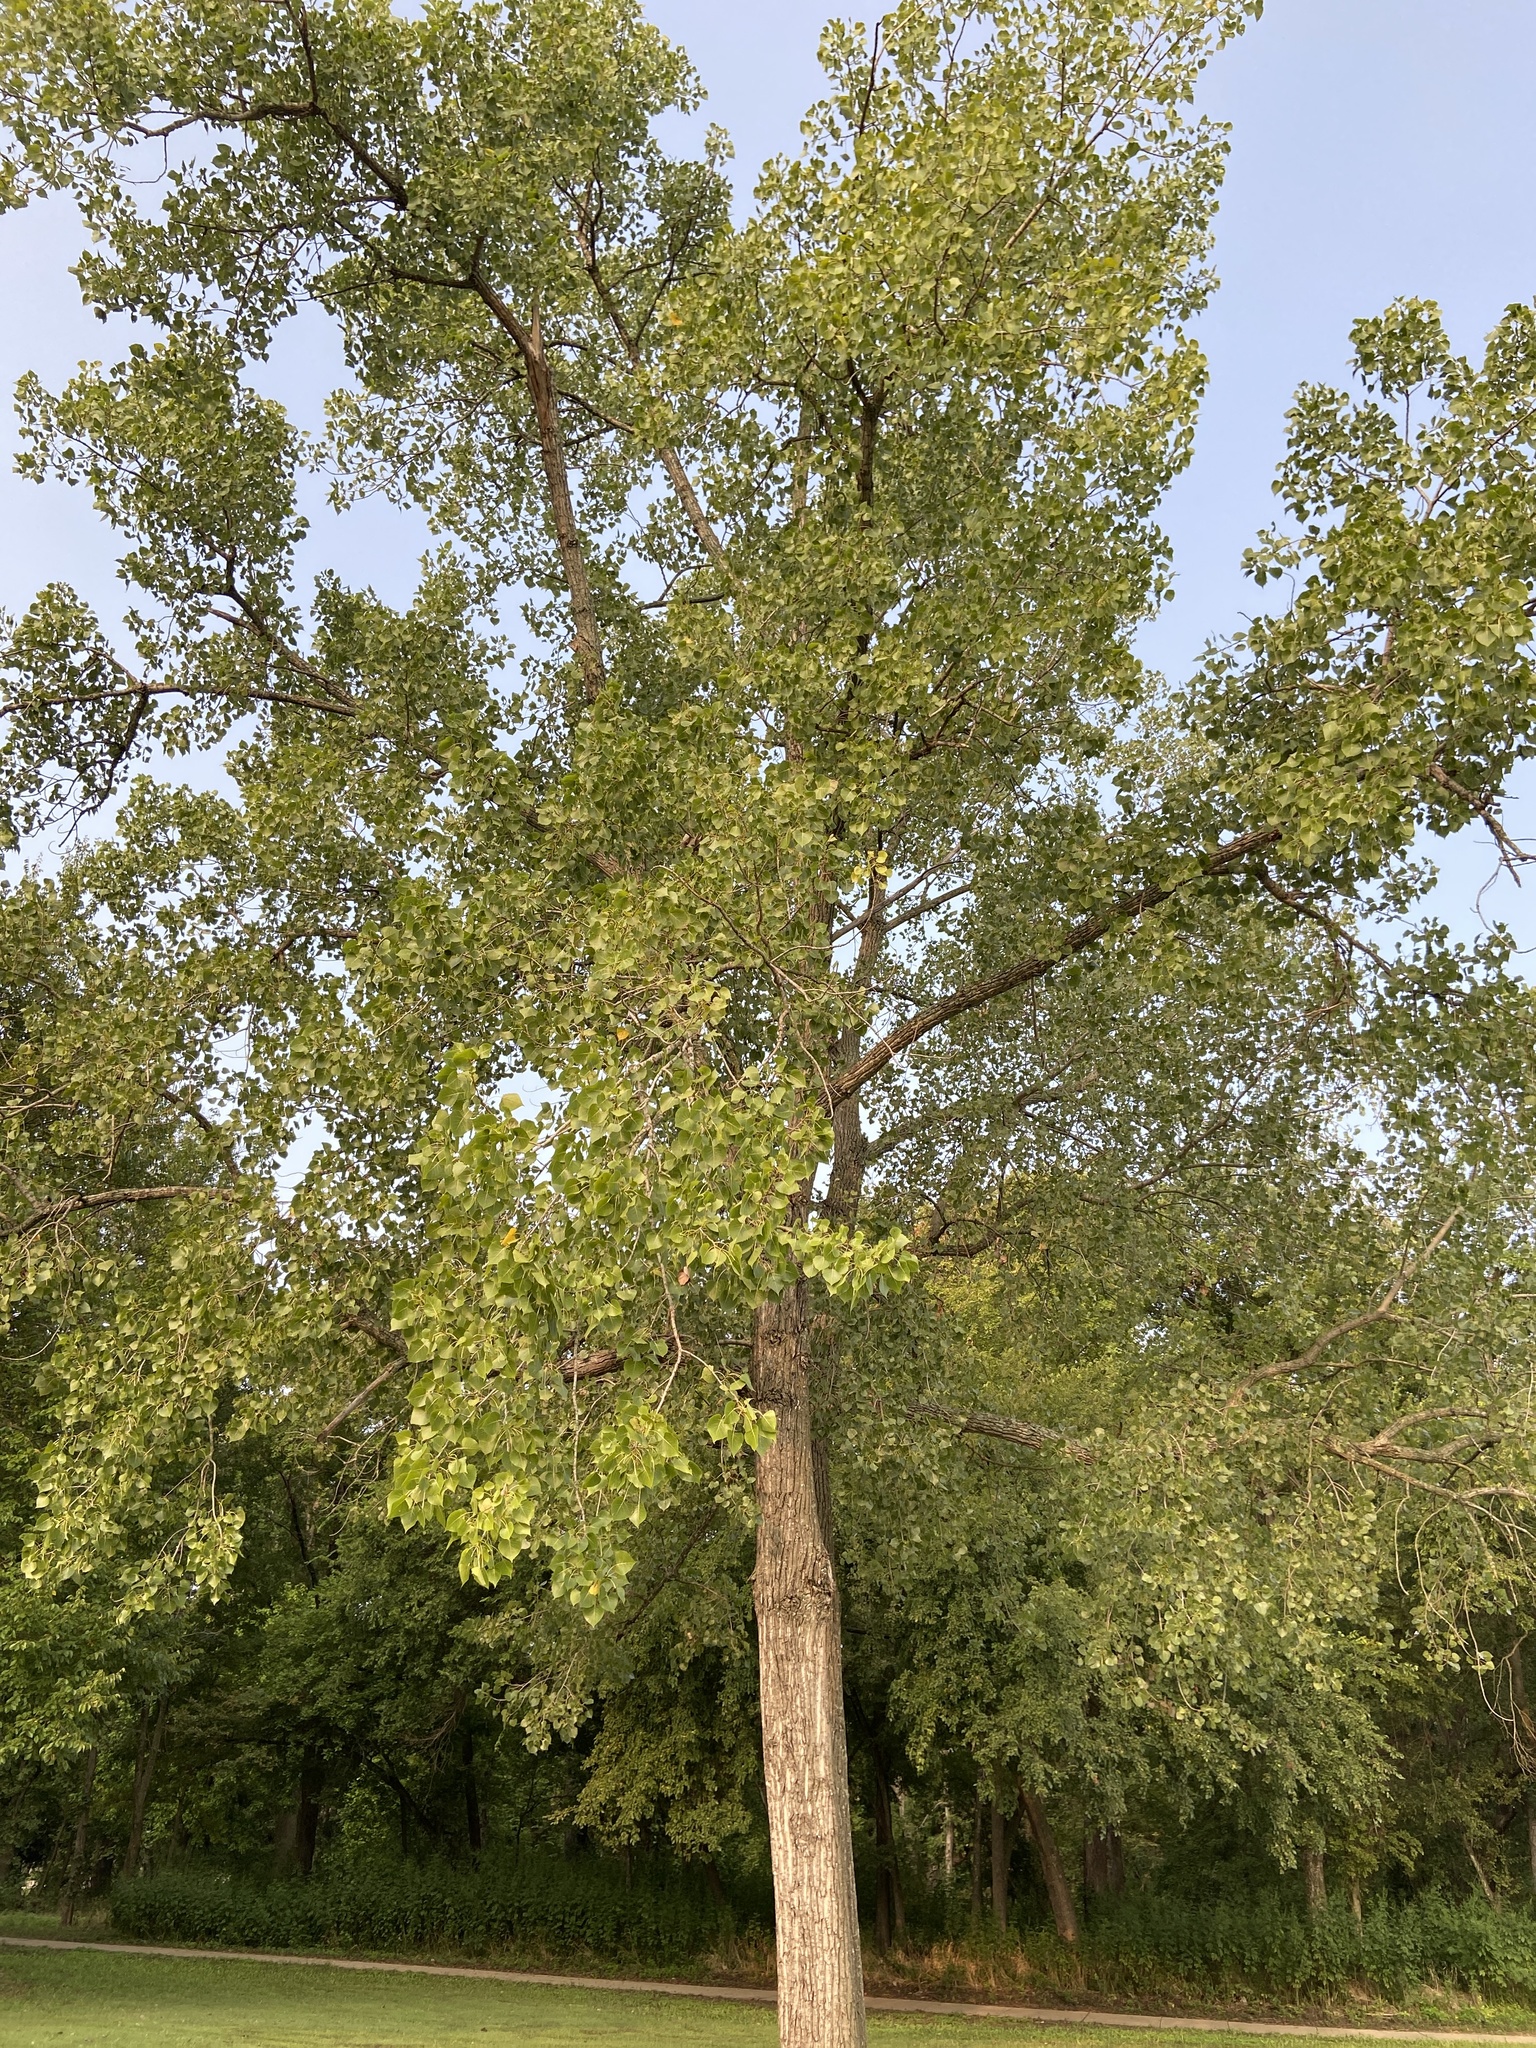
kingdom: Plantae
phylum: Tracheophyta
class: Magnoliopsida
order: Malpighiales
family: Salicaceae
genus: Populus
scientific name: Populus deltoides
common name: Eastern cottonwood
